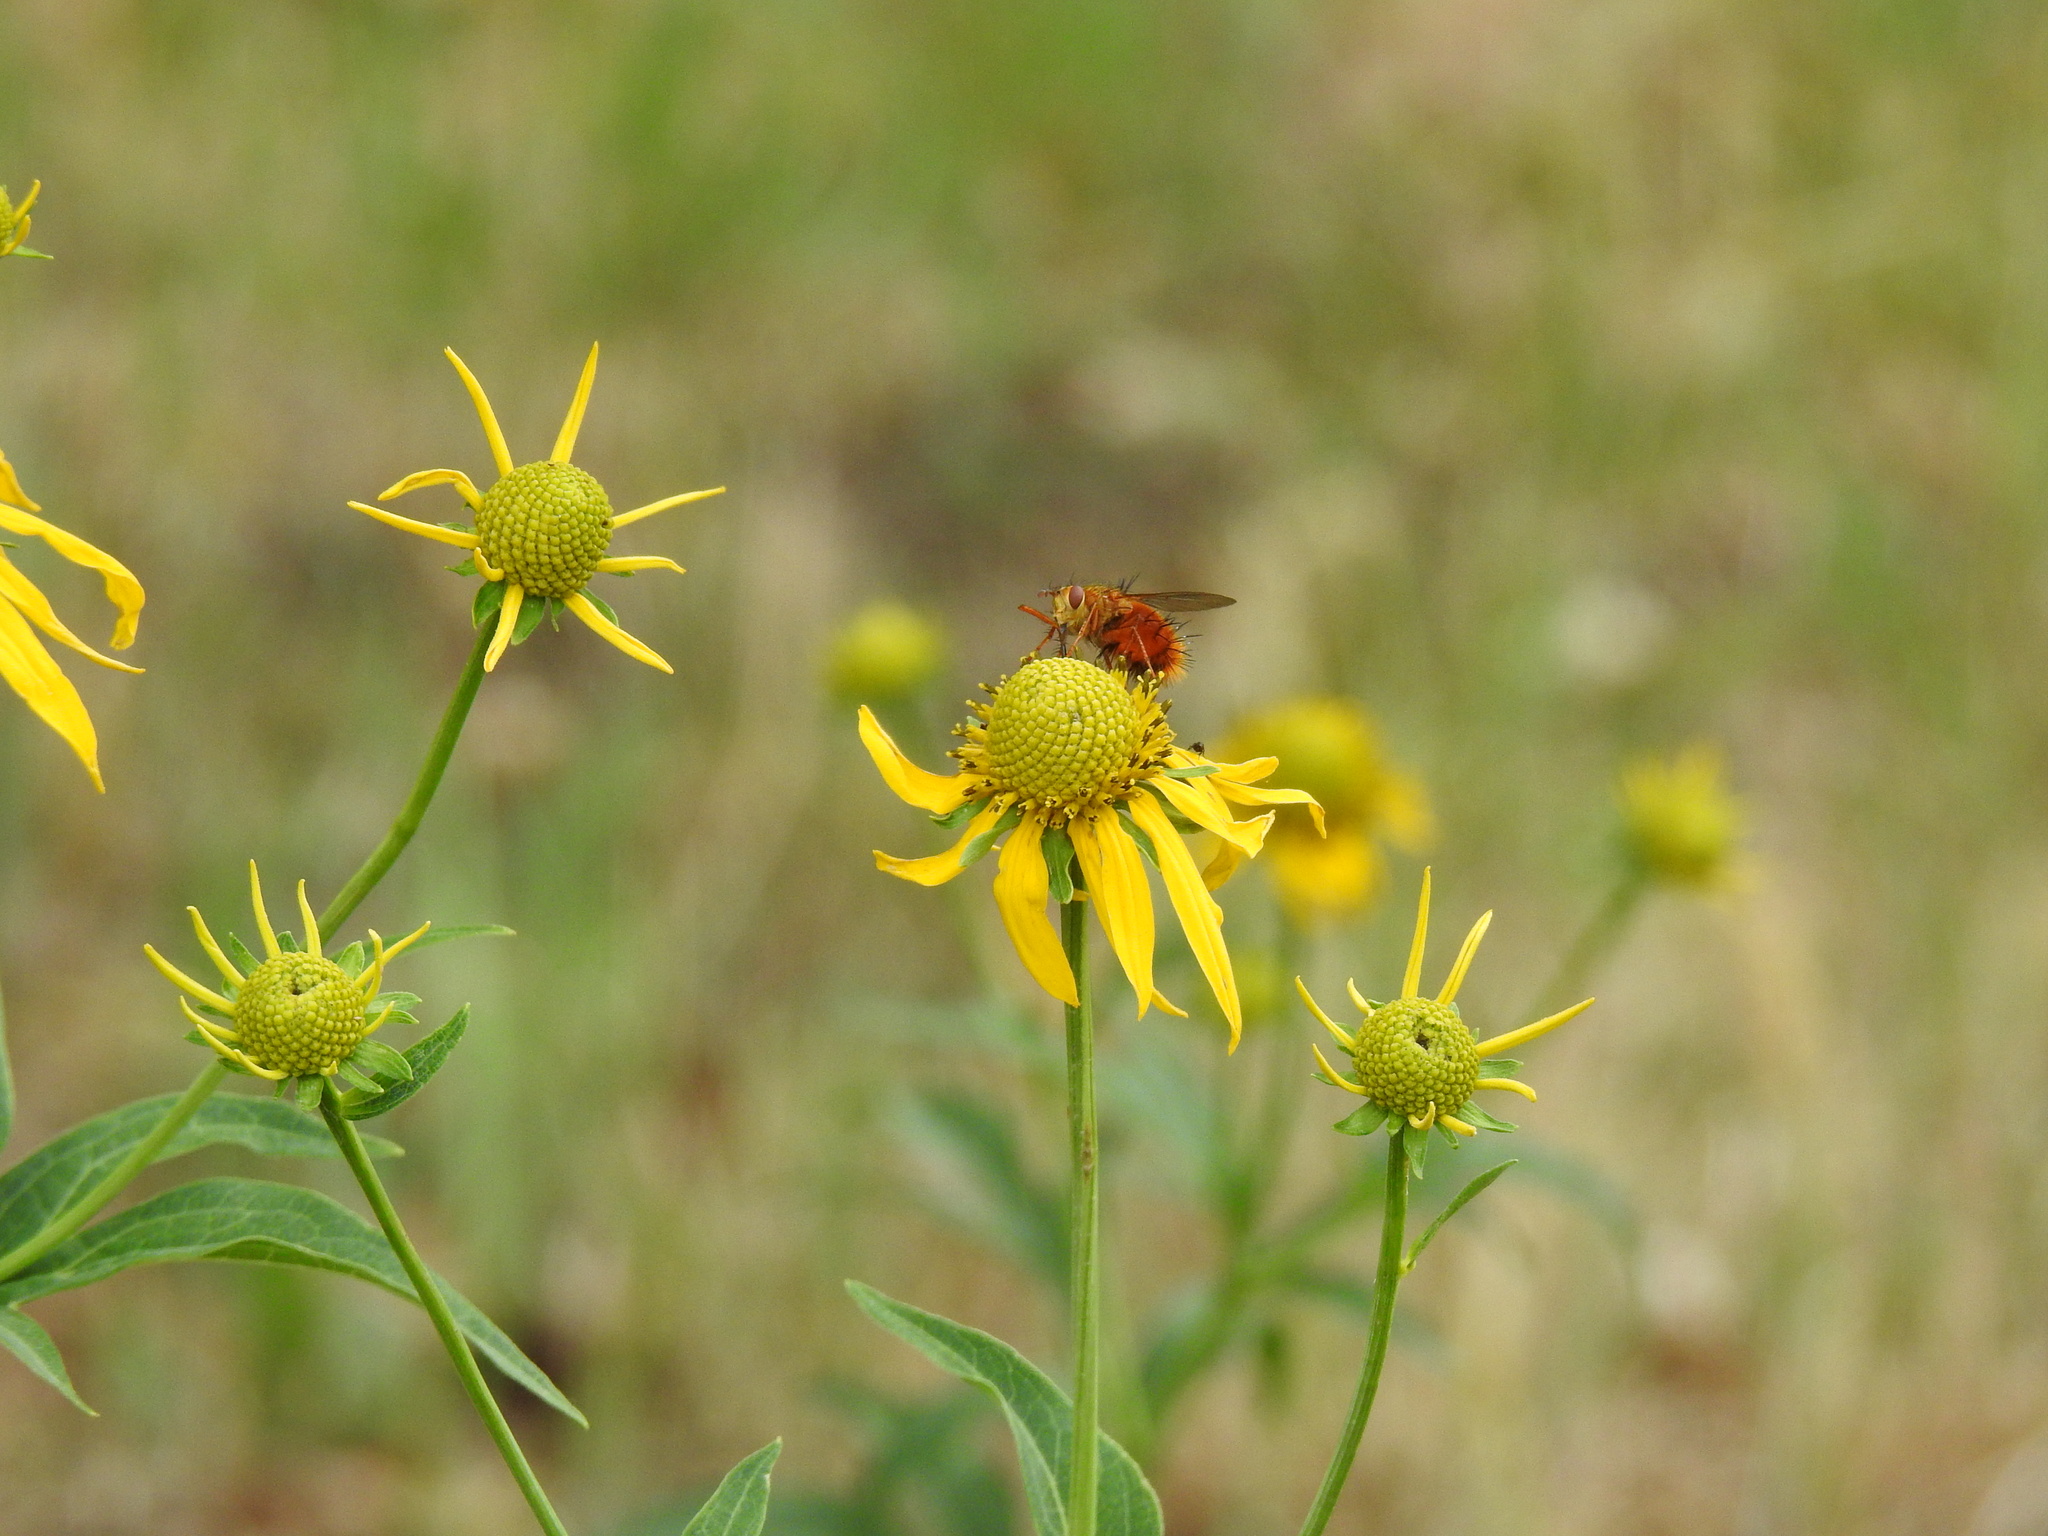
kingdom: Animalia
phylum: Arthropoda
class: Insecta
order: Diptera
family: Tachinidae
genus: Adejeania
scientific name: Adejeania vexatrix
